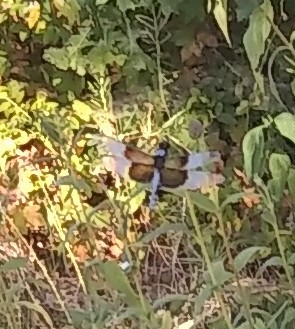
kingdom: Animalia
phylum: Arthropoda
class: Insecta
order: Odonata
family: Libellulidae
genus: Libellula
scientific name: Libellula luctuosa
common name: Widow skimmer
